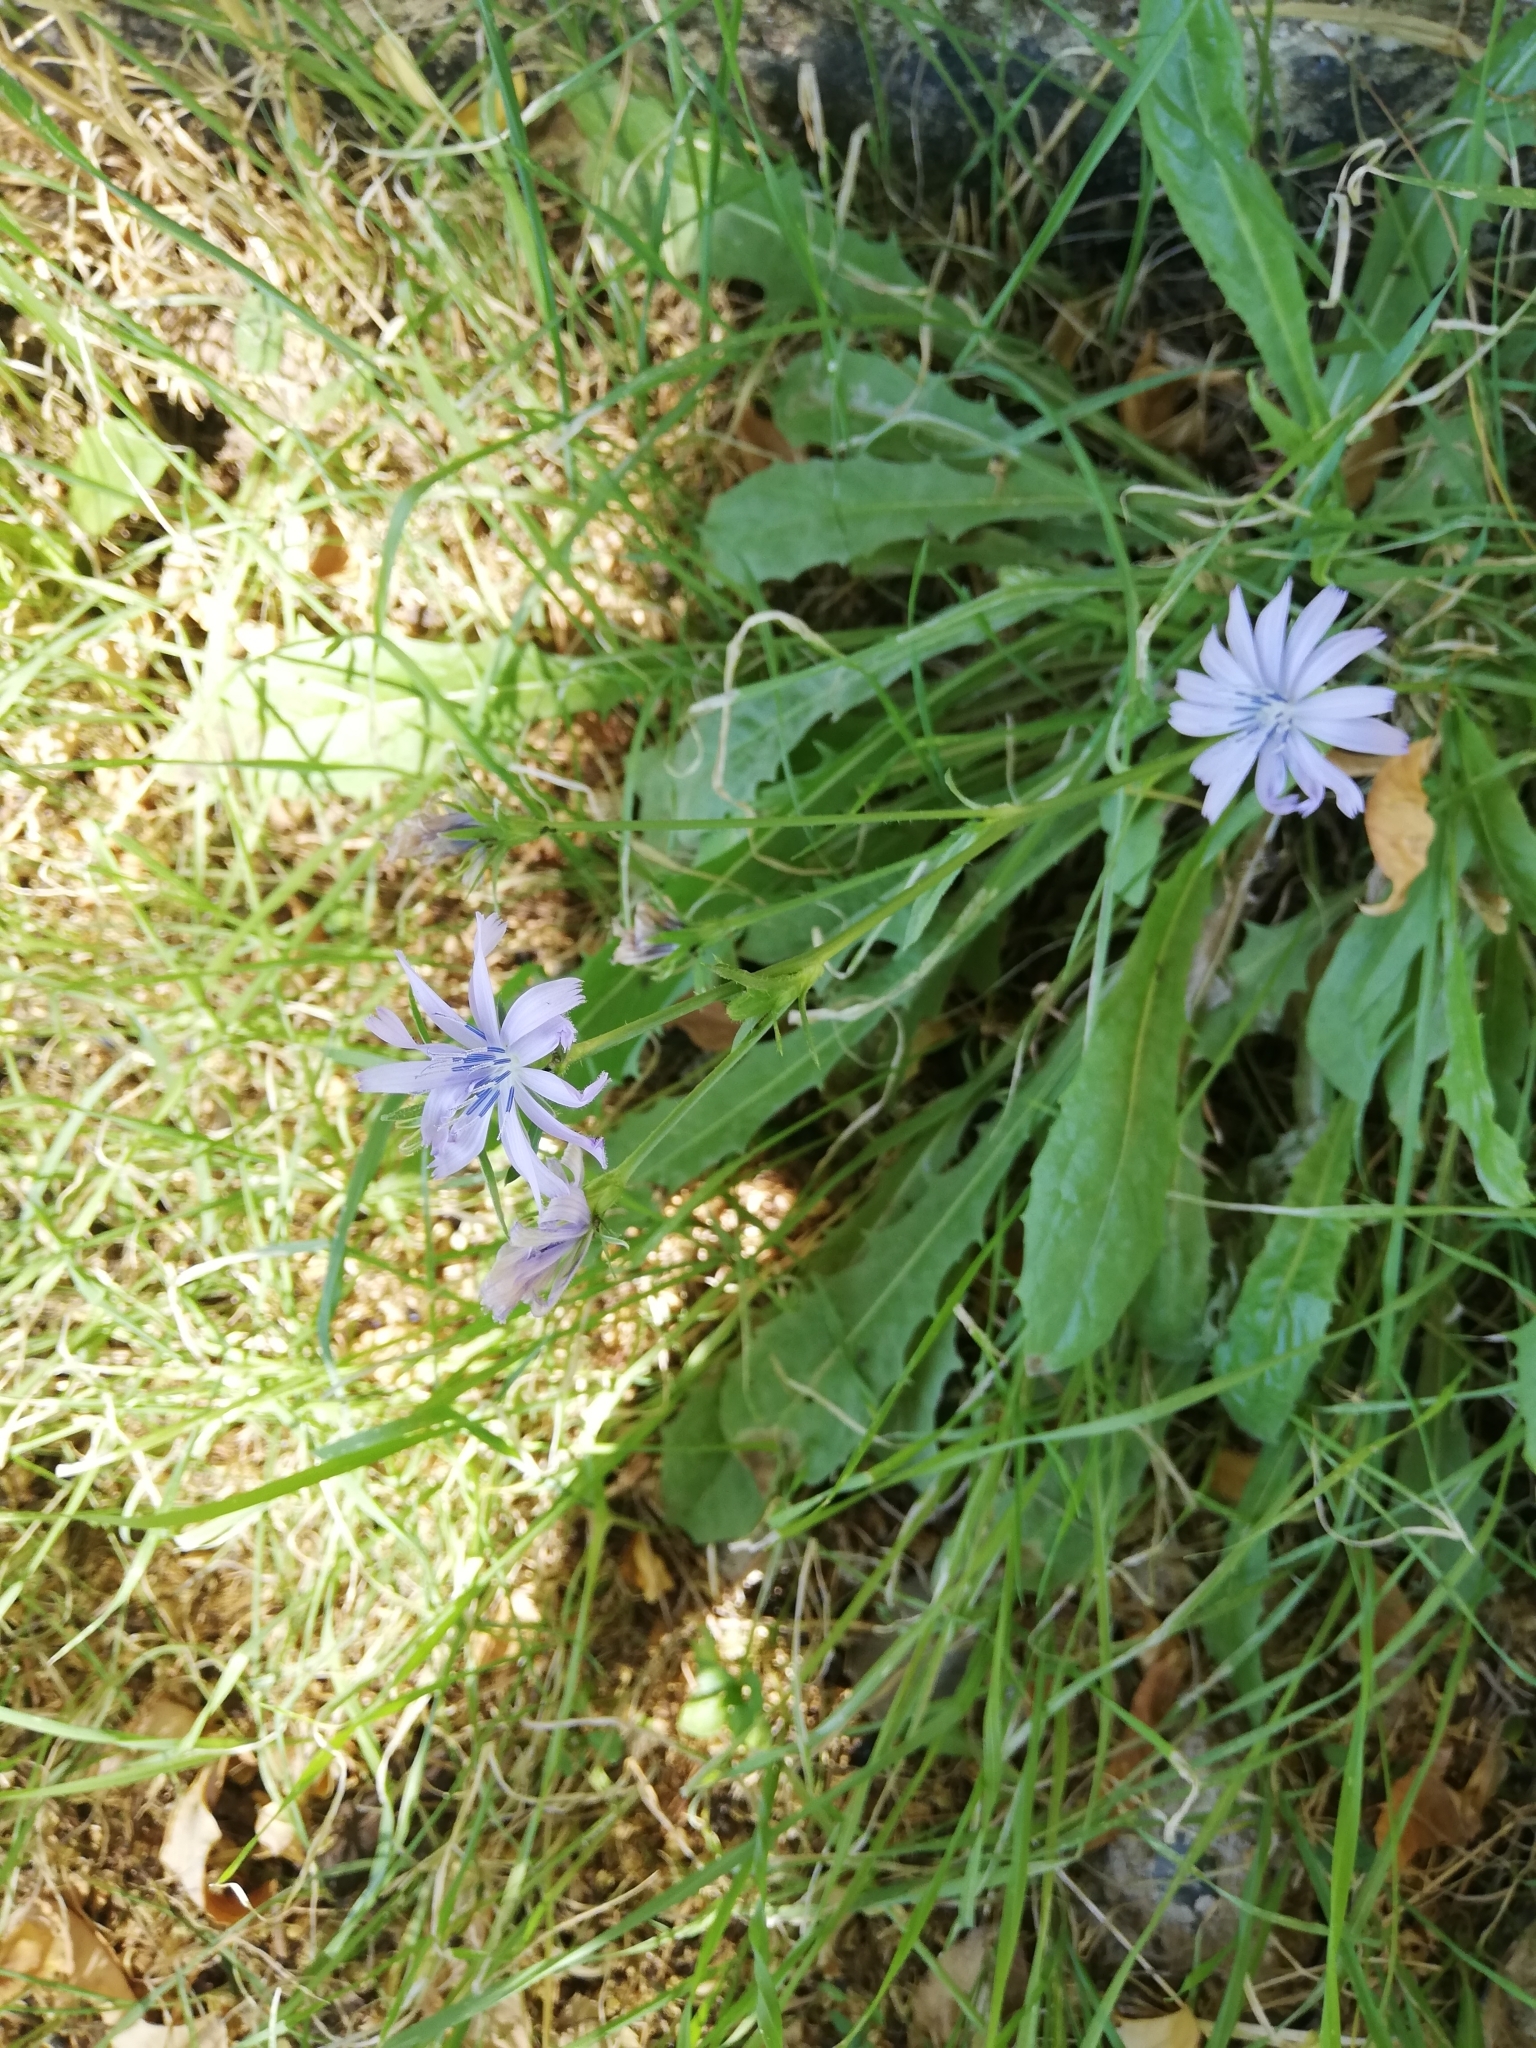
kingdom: Plantae
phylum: Tracheophyta
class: Magnoliopsida
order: Asterales
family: Asteraceae
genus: Cichorium
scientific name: Cichorium intybus
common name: Chicory
